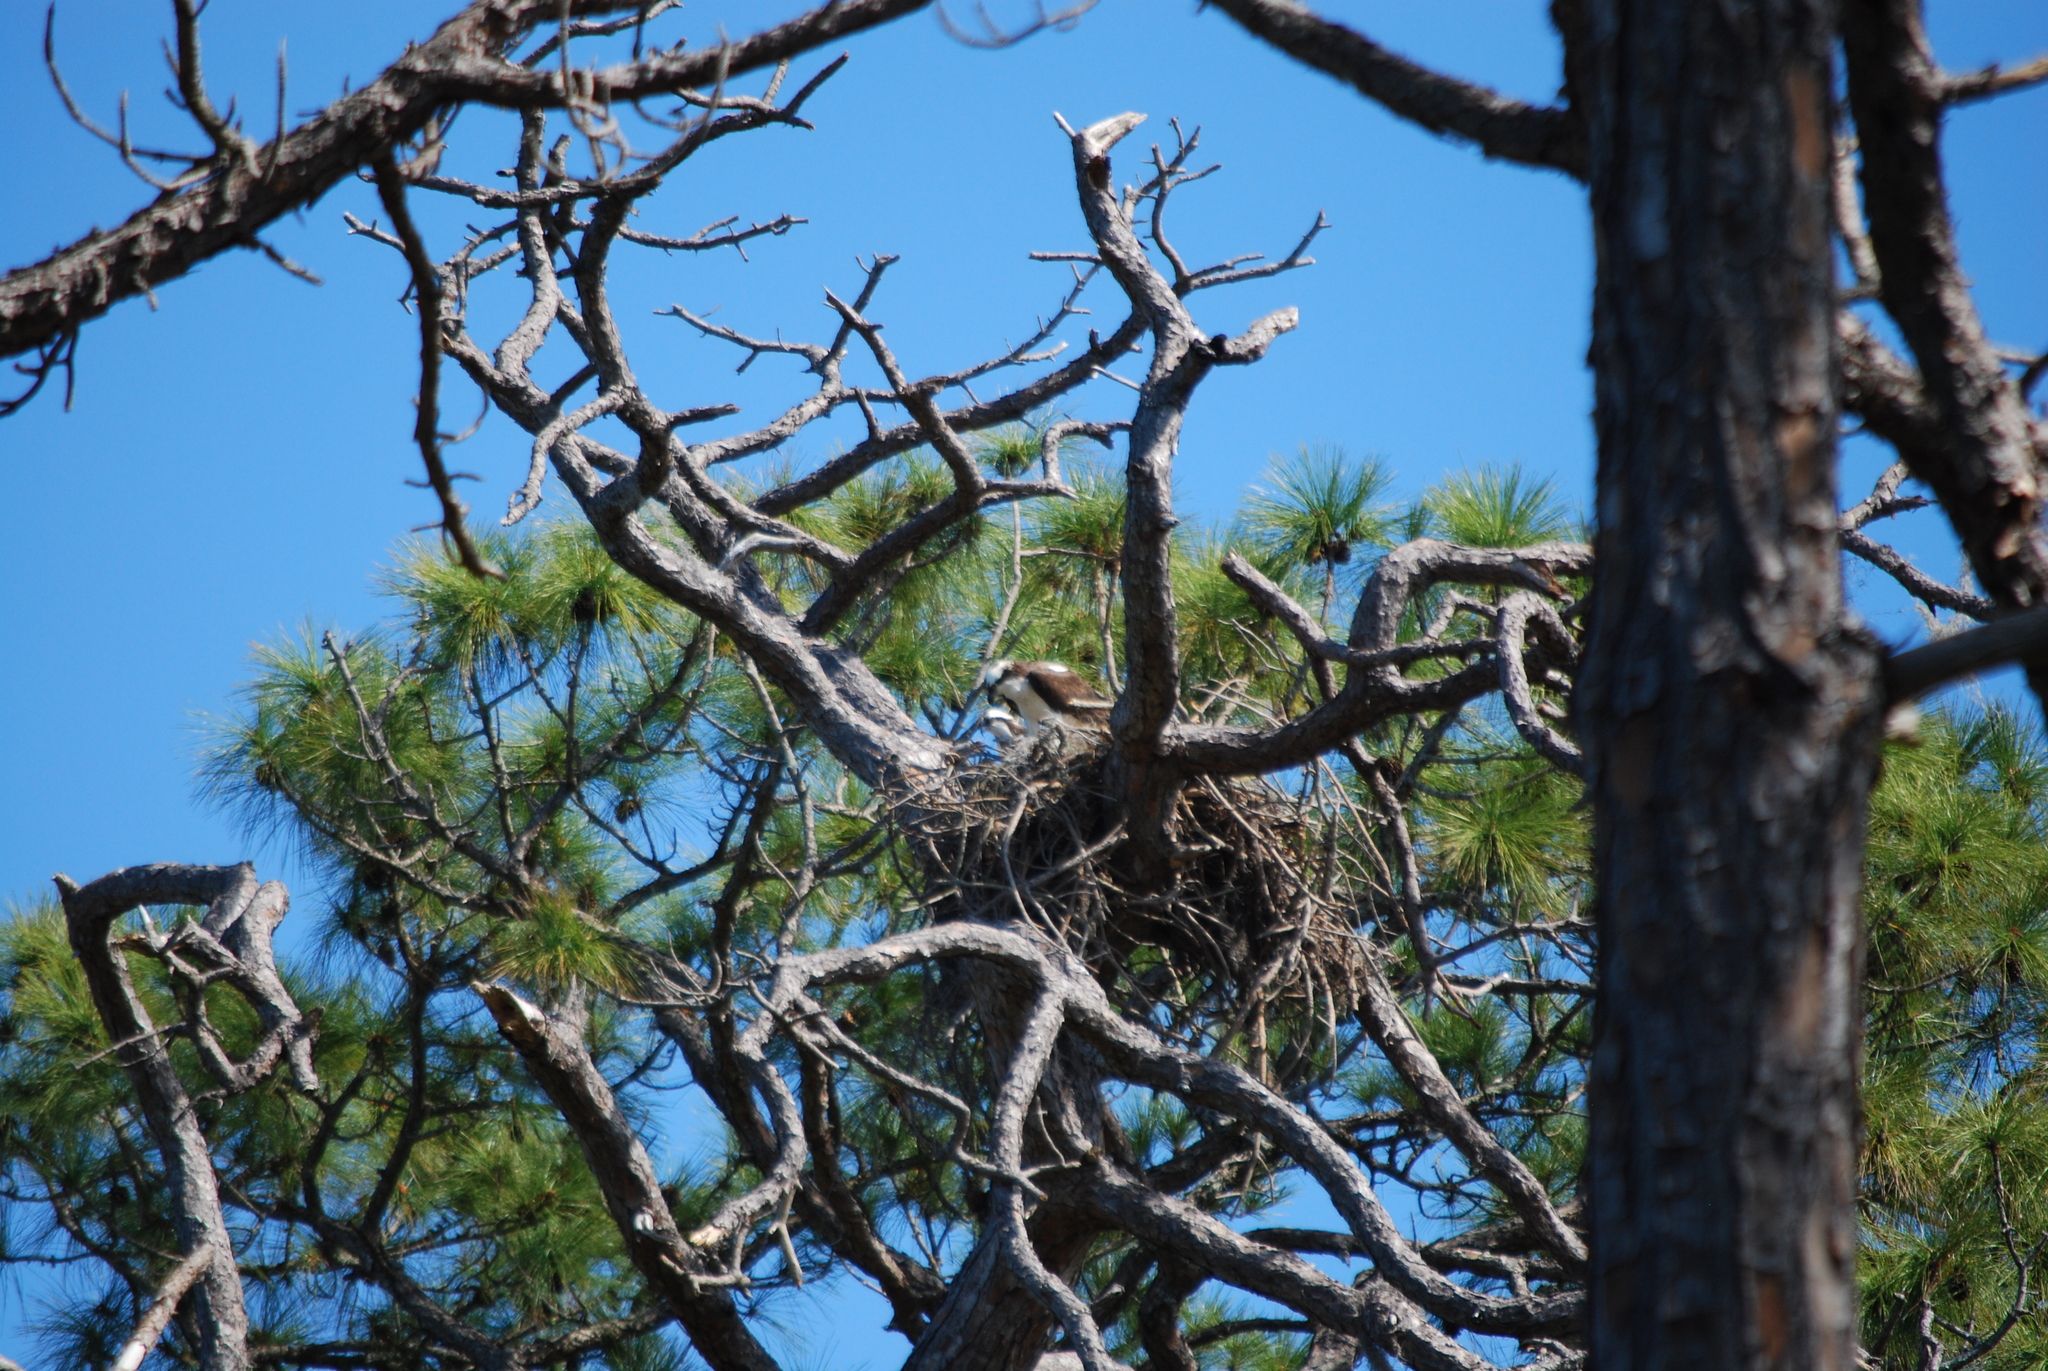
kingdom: Animalia
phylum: Chordata
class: Aves
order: Accipitriformes
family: Pandionidae
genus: Pandion
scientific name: Pandion haliaetus
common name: Osprey
